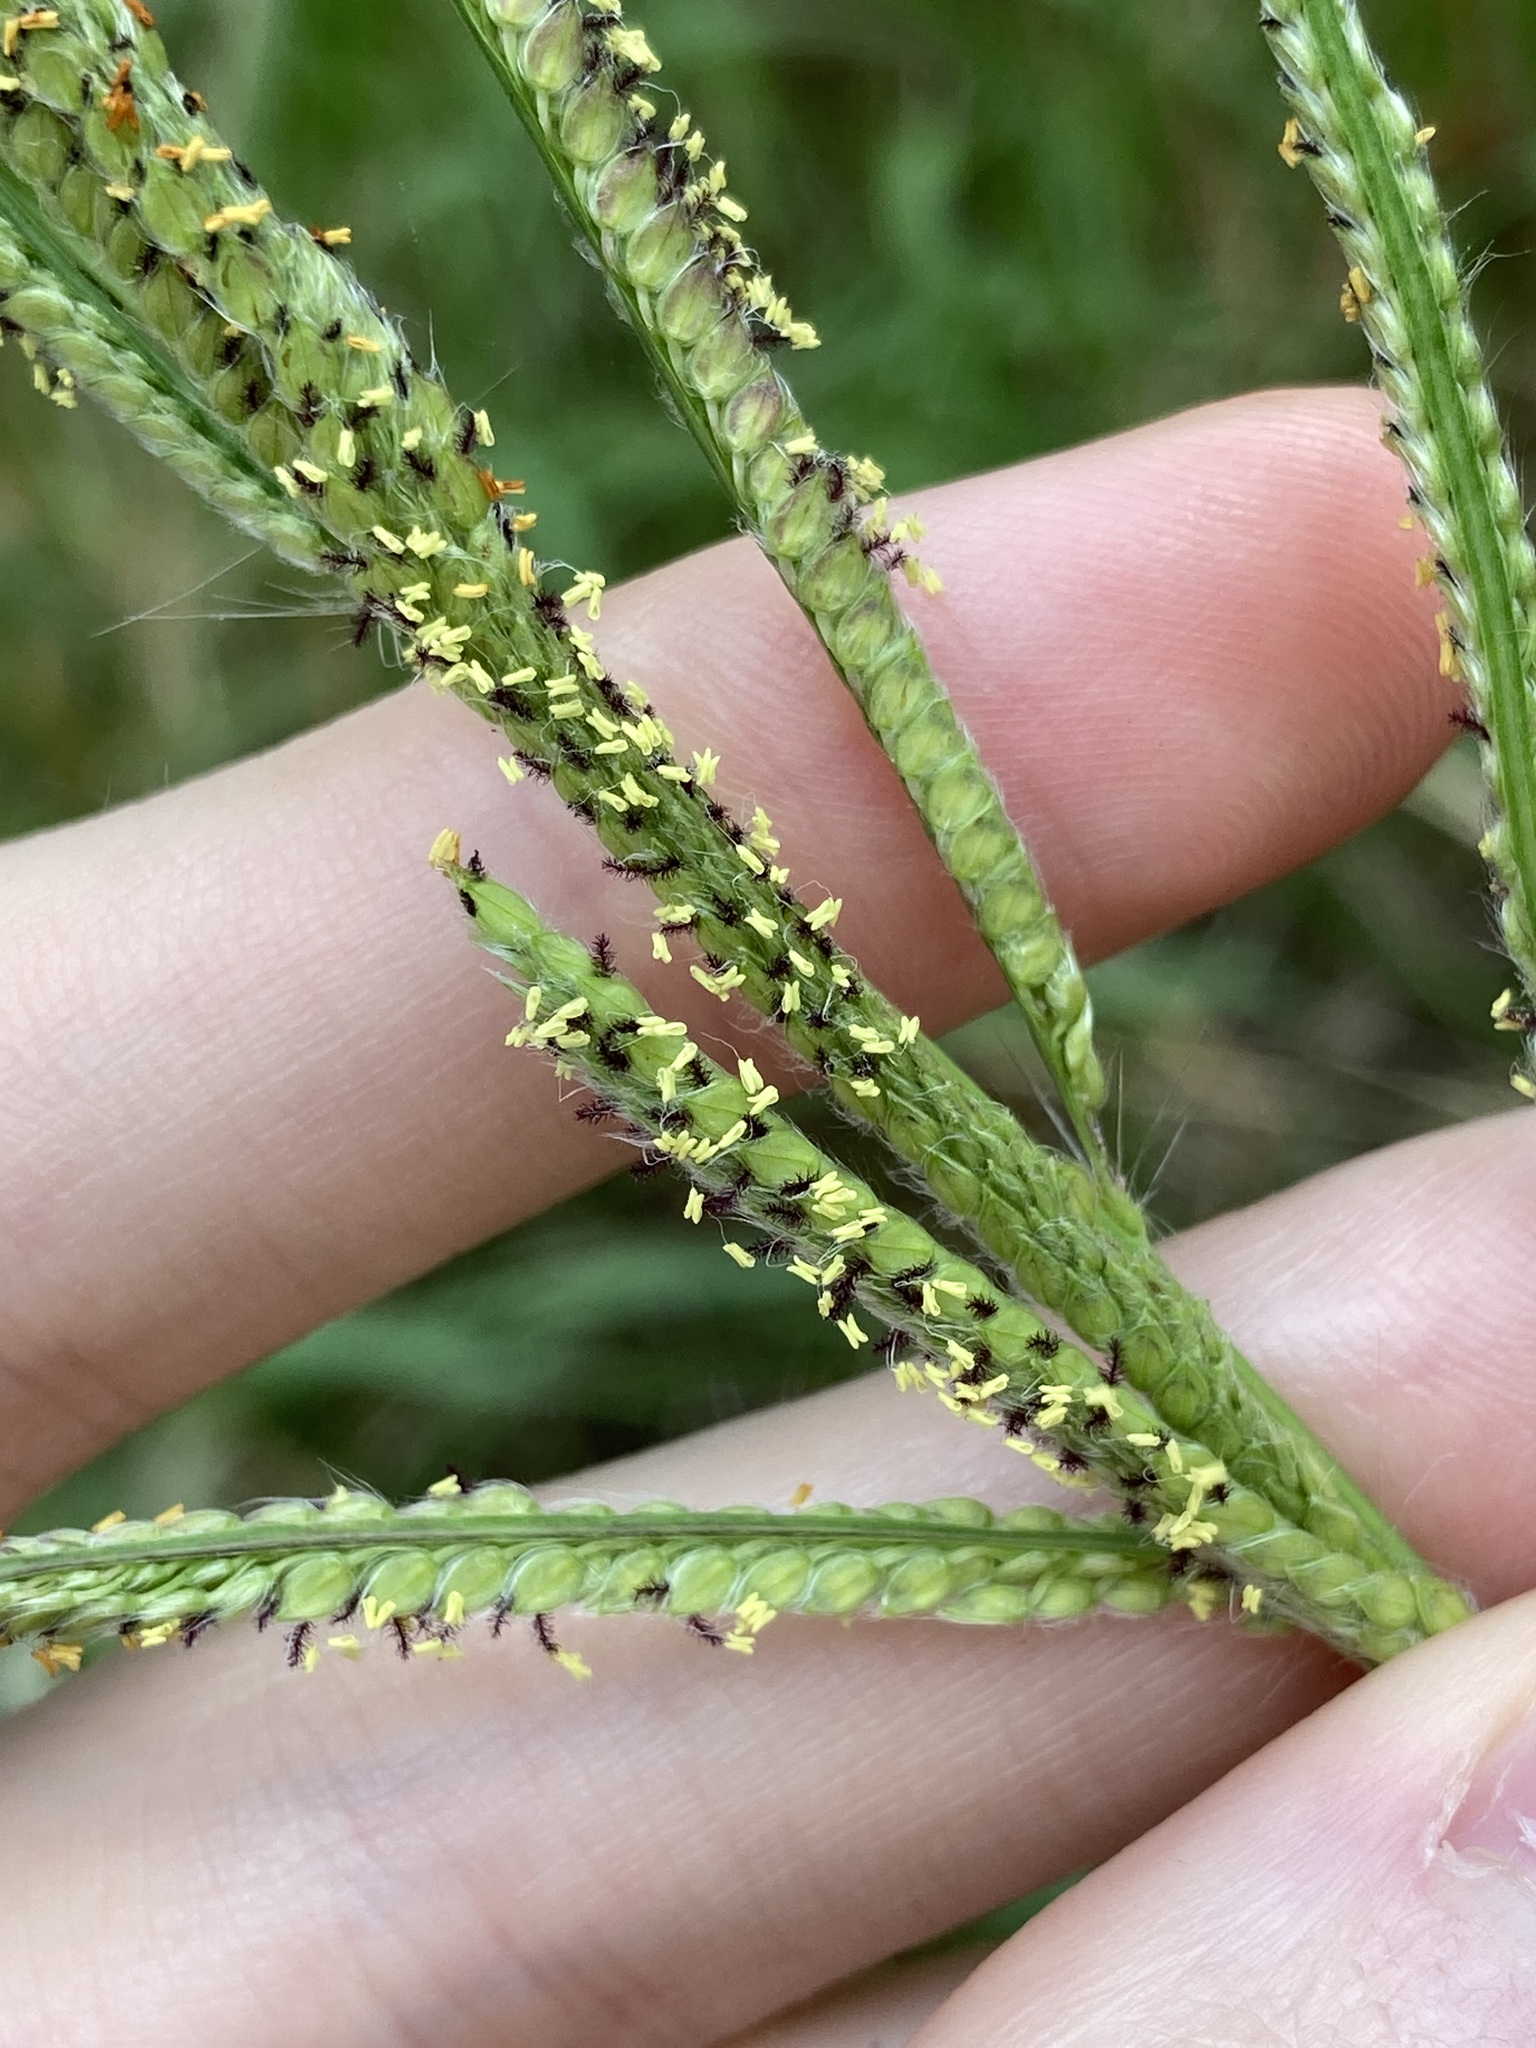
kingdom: Plantae
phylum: Tracheophyta
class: Liliopsida
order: Poales
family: Poaceae
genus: Paspalum
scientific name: Paspalum urvillei
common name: Vasey's grass
